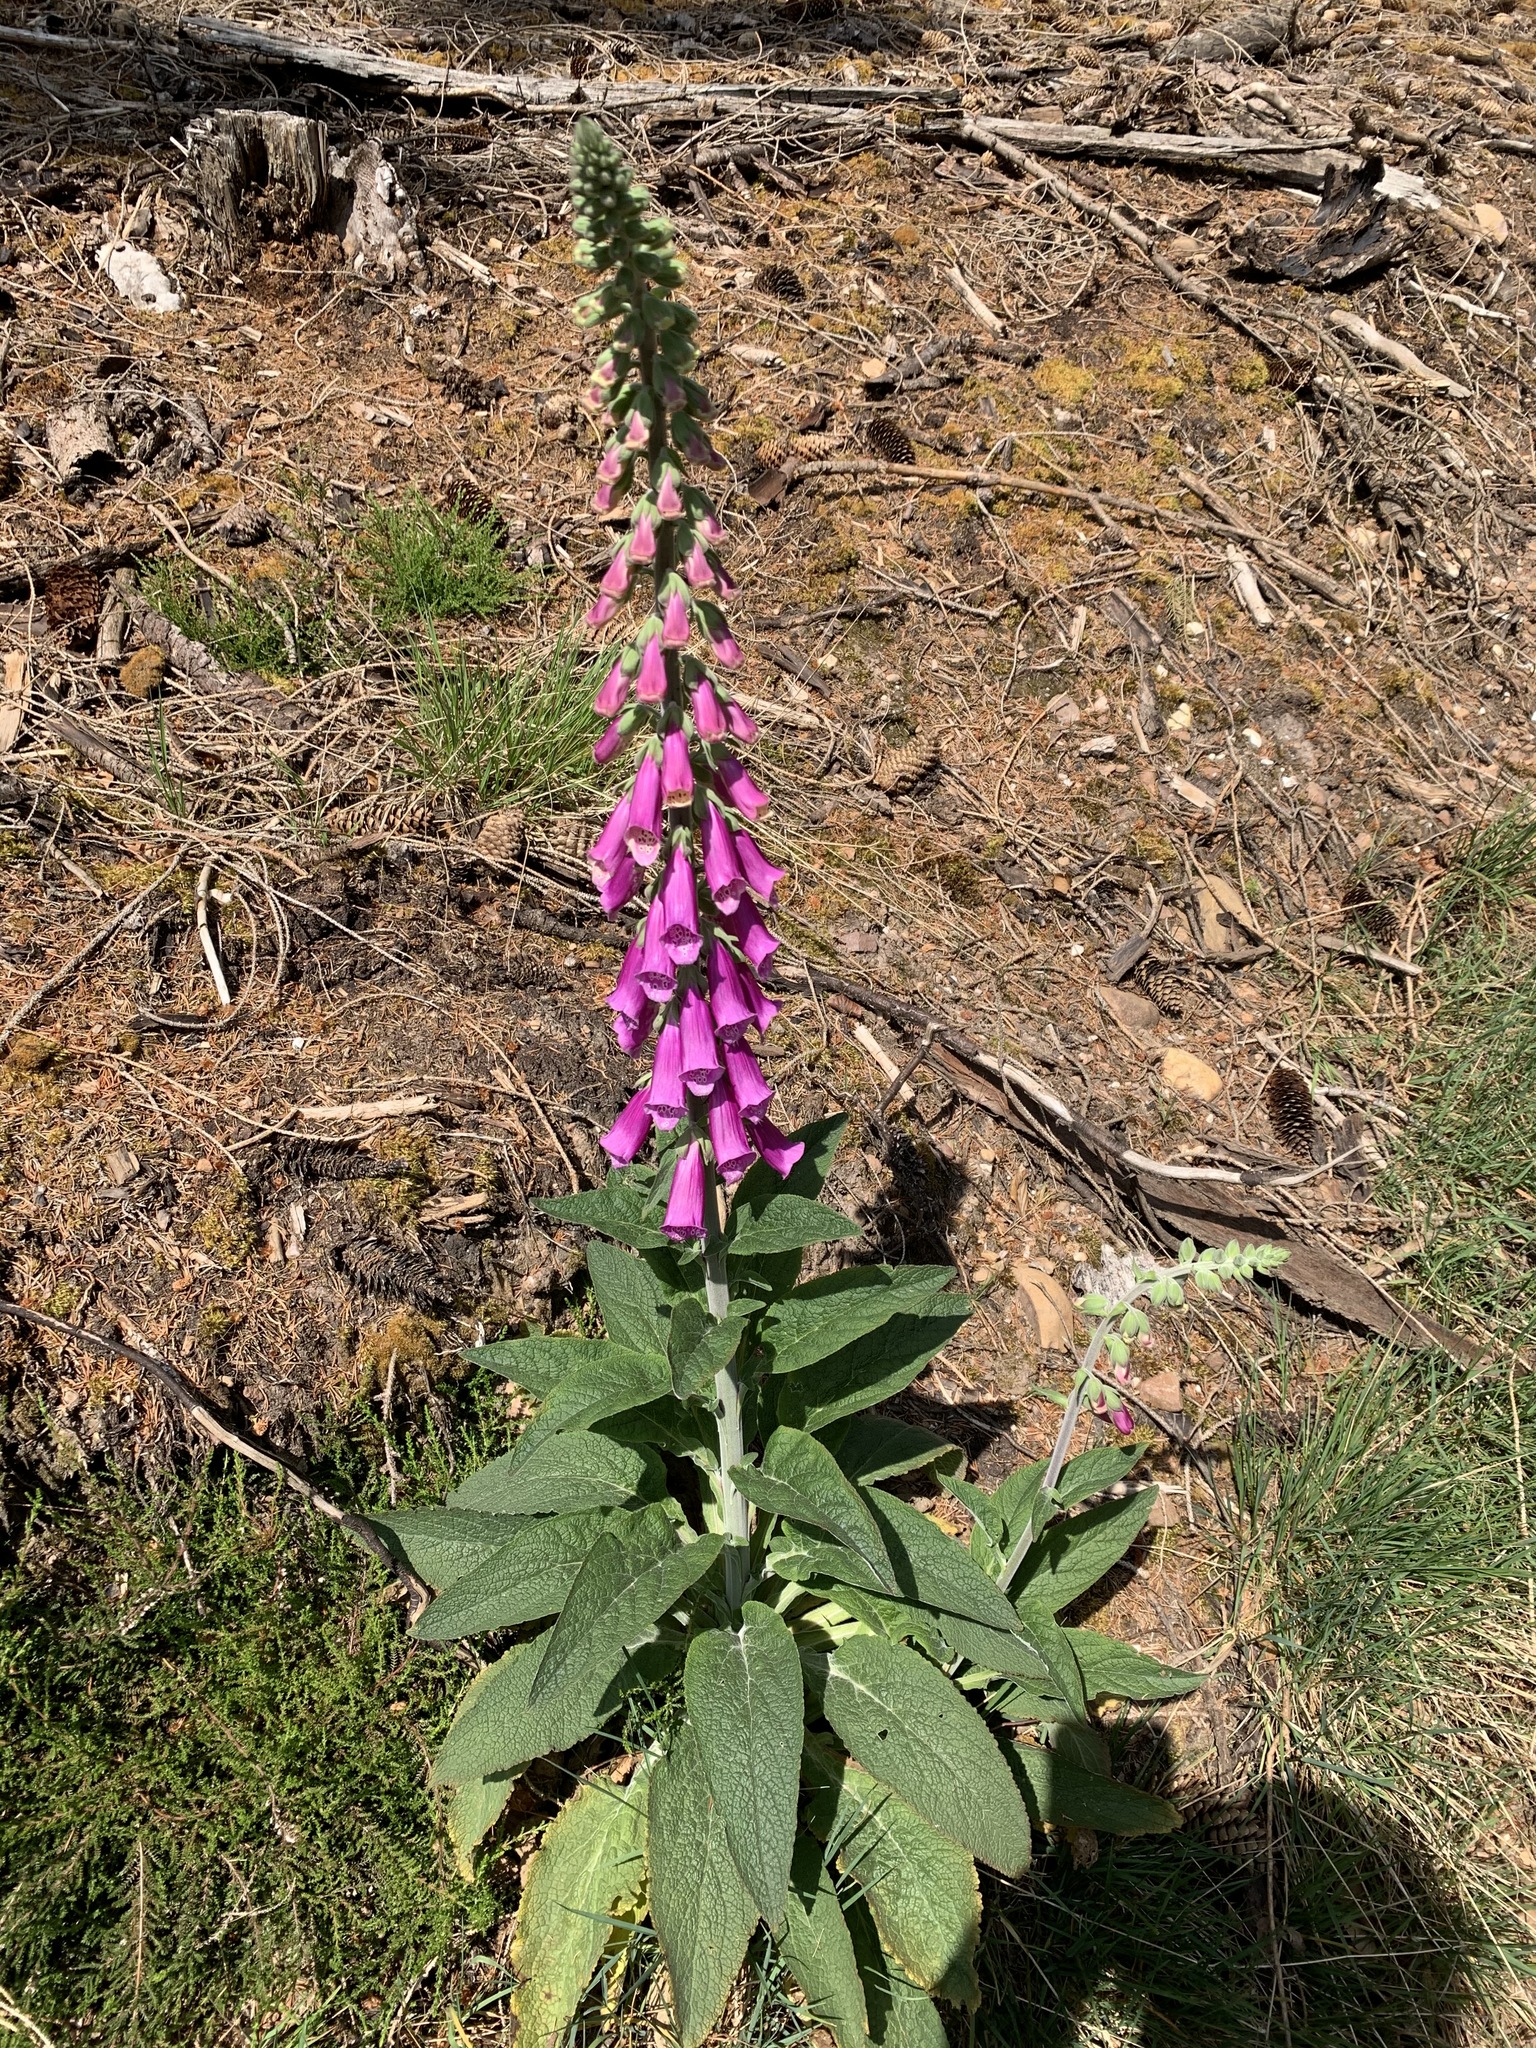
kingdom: Plantae
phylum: Tracheophyta
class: Magnoliopsida
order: Lamiales
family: Plantaginaceae
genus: Digitalis
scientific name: Digitalis purpurea
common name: Foxglove
